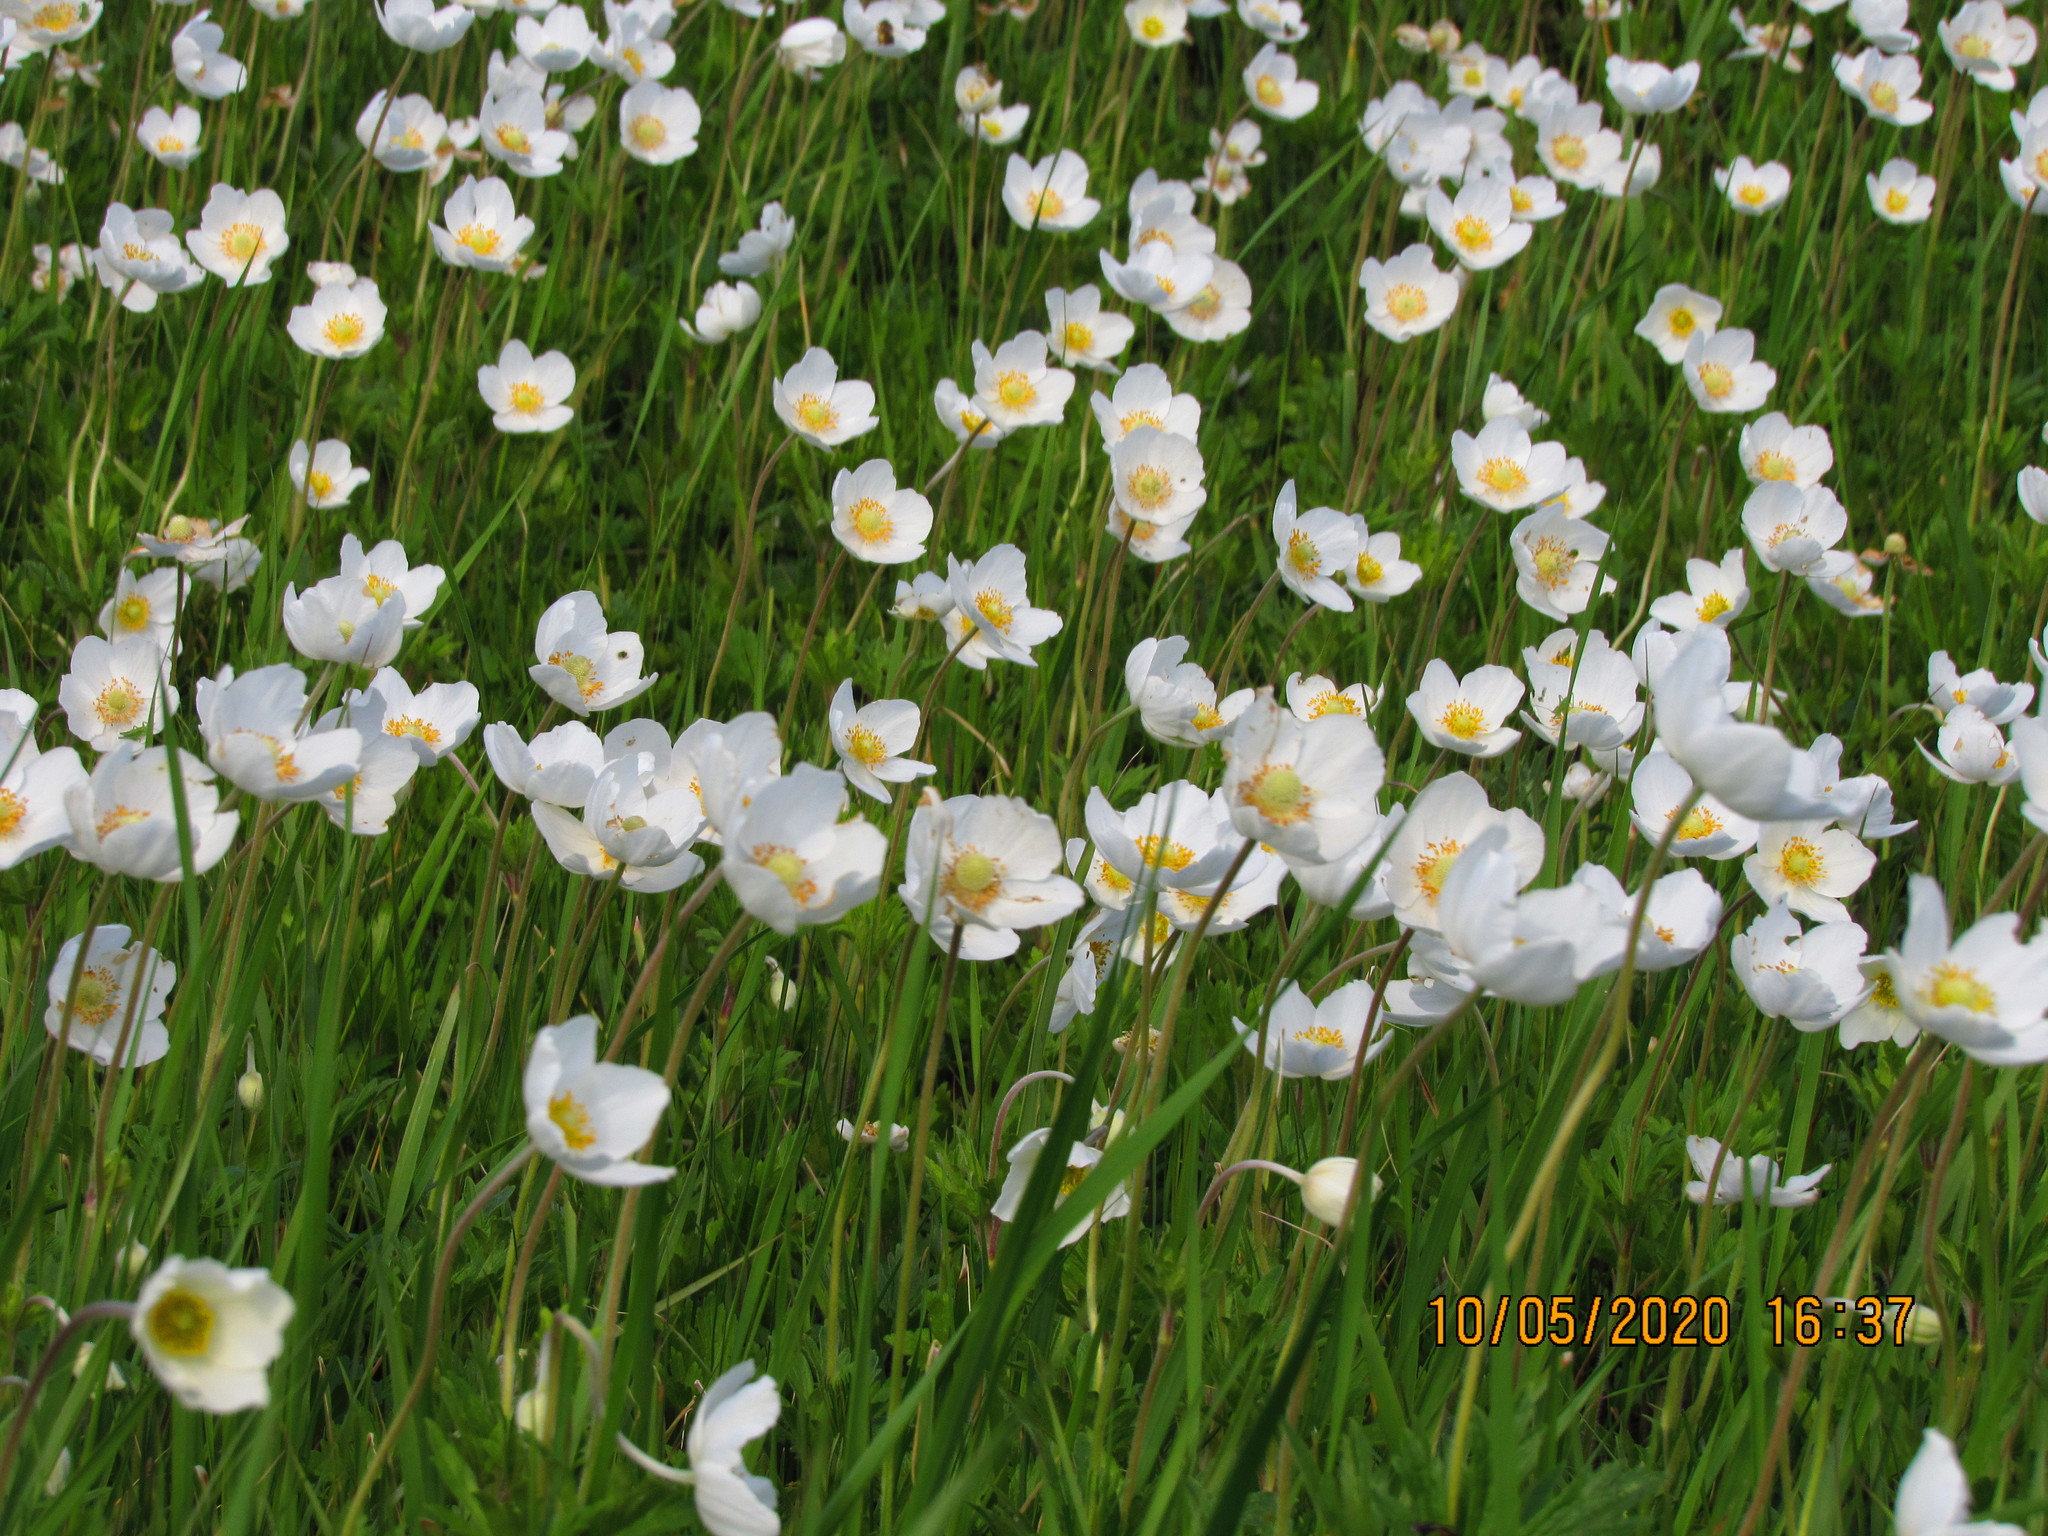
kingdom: Plantae
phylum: Tracheophyta
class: Magnoliopsida
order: Ranunculales
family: Ranunculaceae
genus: Anemone
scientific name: Anemone sylvestris
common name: Snowdrop anemone
